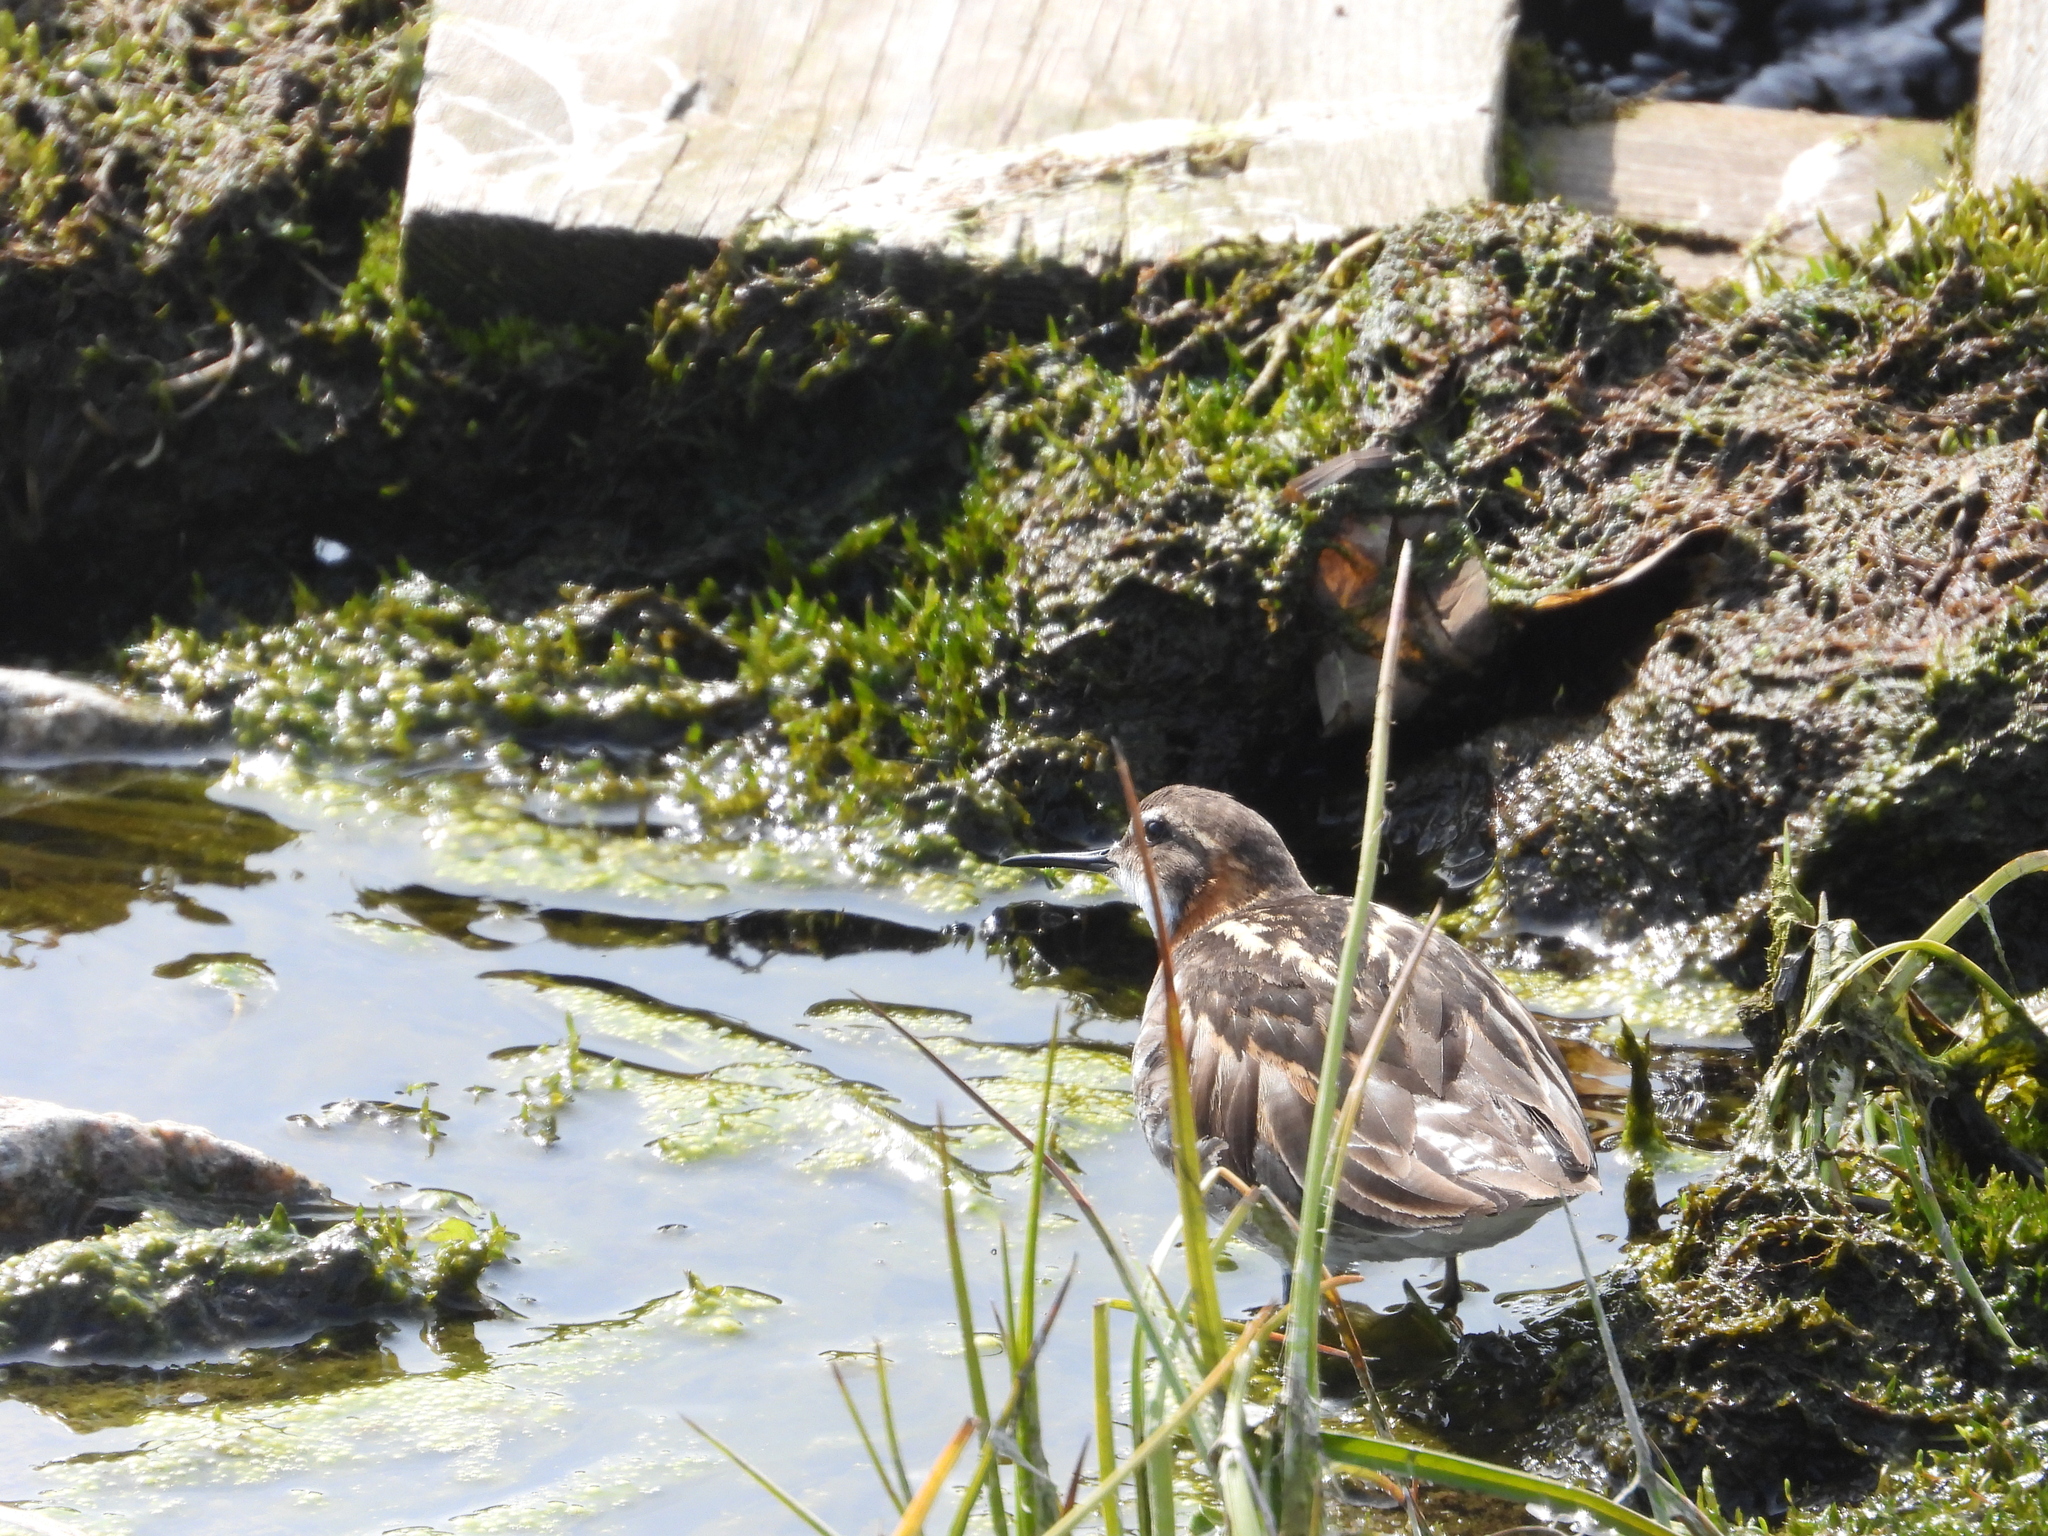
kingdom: Animalia
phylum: Chordata
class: Aves
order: Charadriiformes
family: Scolopacidae
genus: Phalaropus
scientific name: Phalaropus lobatus
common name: Red-necked phalarope
